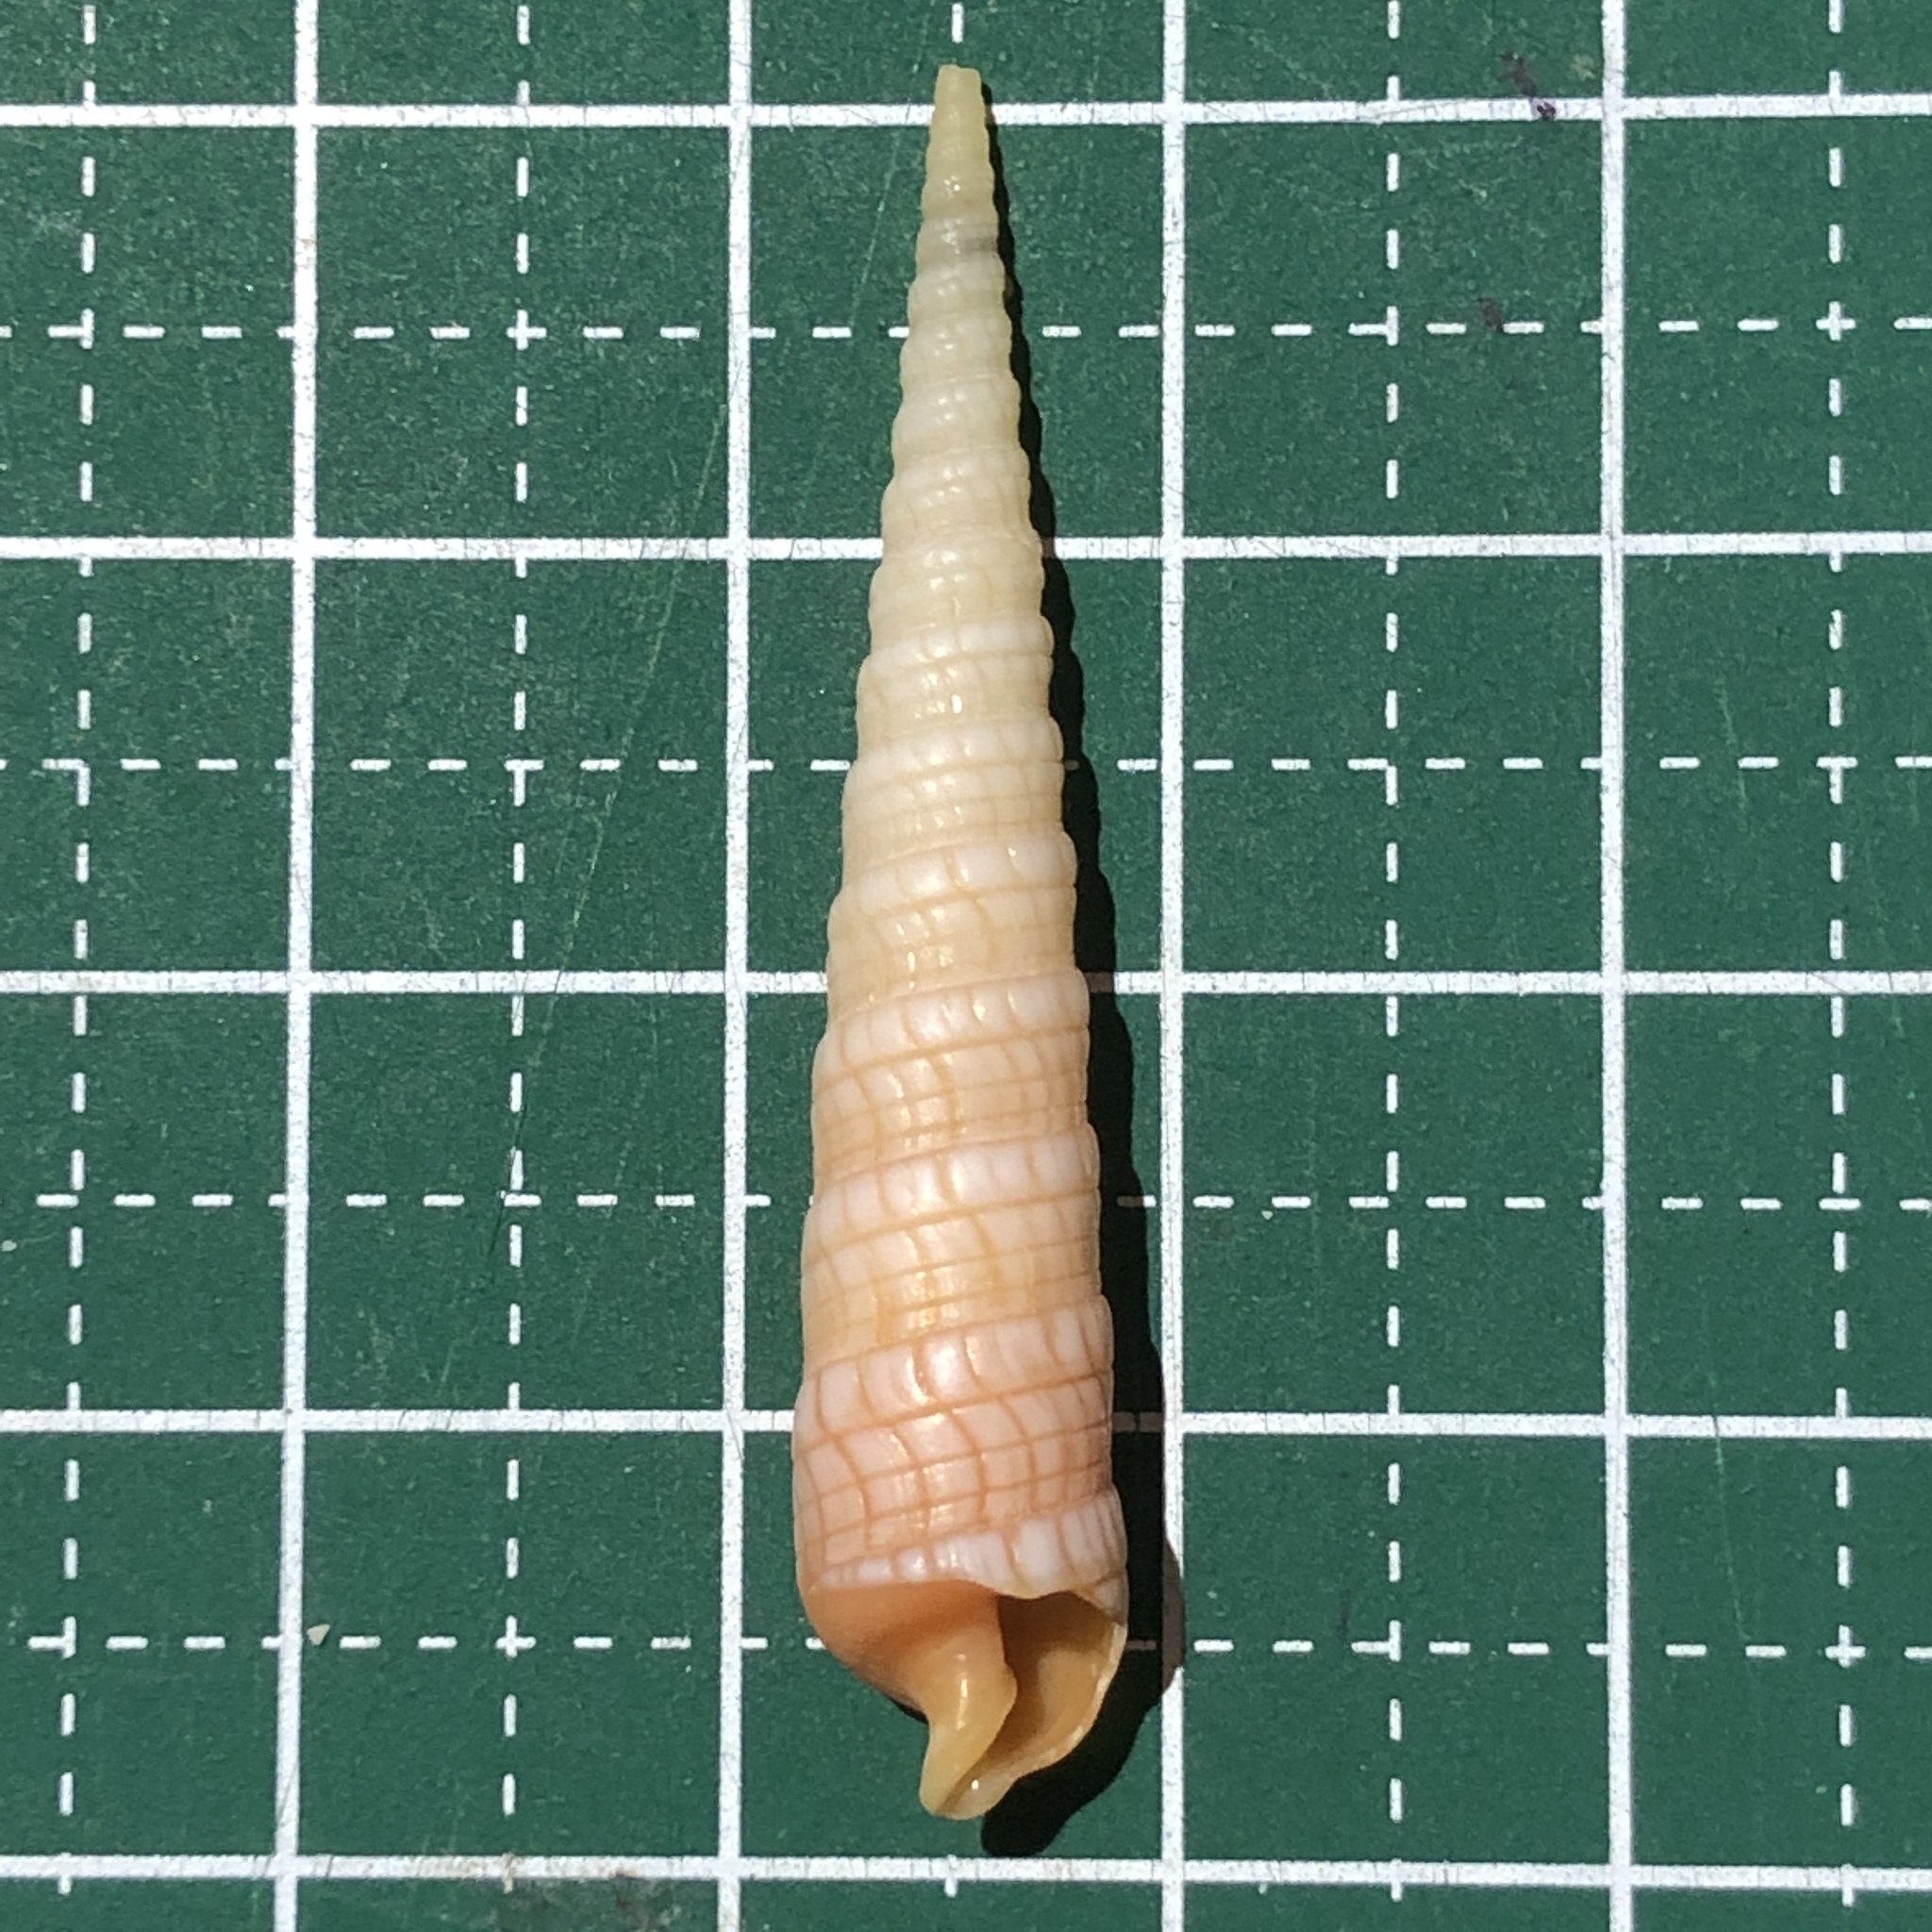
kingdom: Animalia
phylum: Mollusca
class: Gastropoda
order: Neogastropoda
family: Terebridae
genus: Terebra
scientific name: Terebra babylonia
